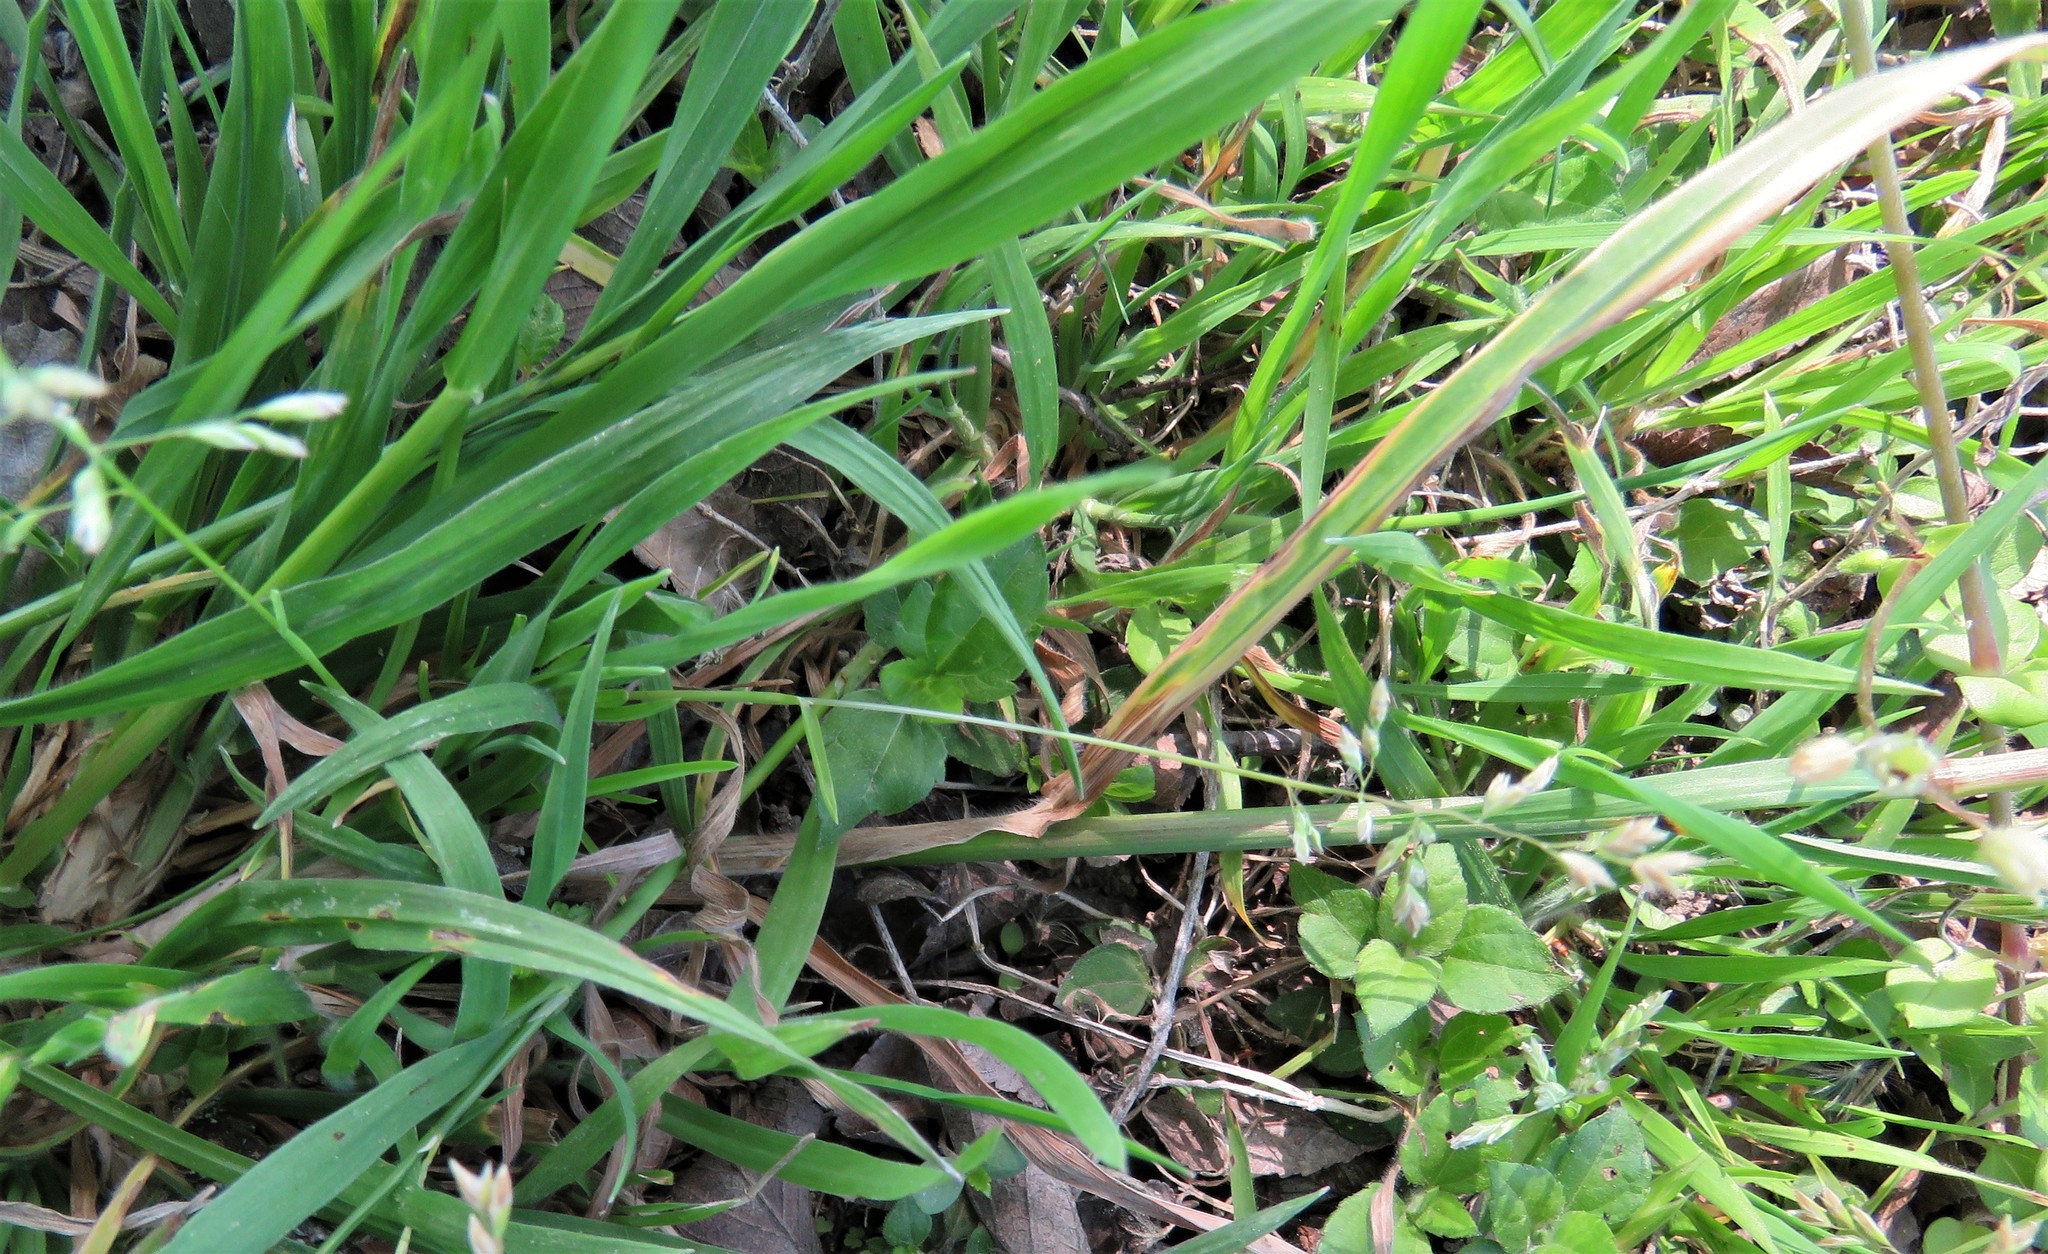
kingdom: Plantae
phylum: Tracheophyta
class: Liliopsida
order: Poales
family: Poaceae
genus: Bromus
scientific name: Bromus catharticus
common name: Rescuegrass
